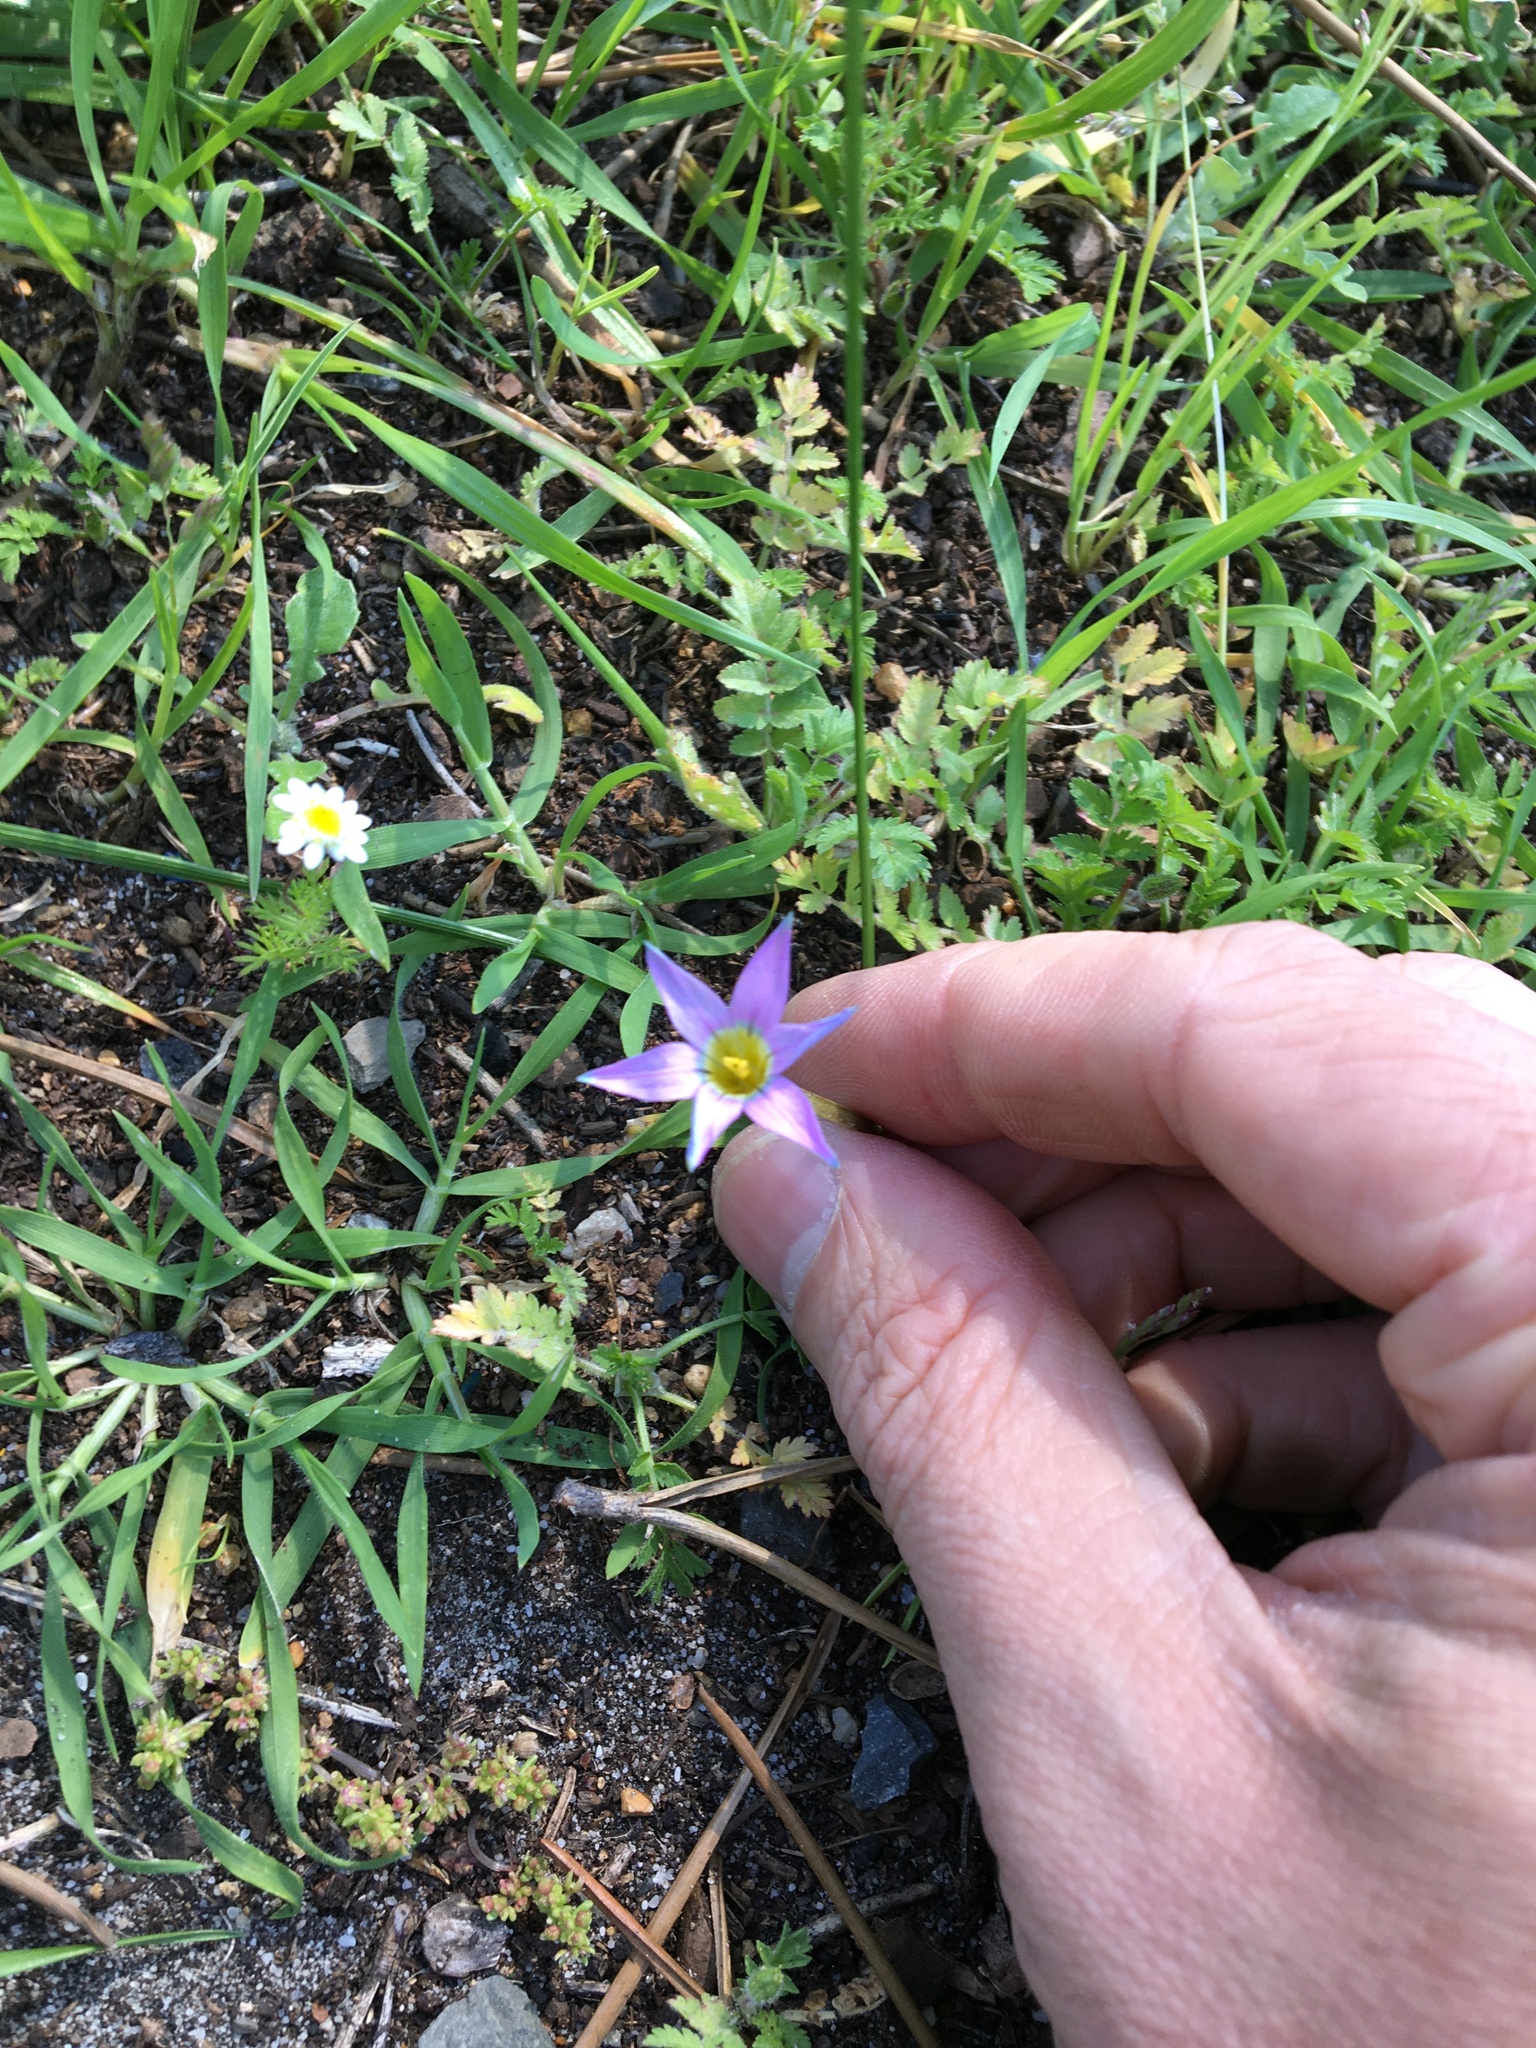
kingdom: Plantae
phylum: Tracheophyta
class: Liliopsida
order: Asparagales
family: Iridaceae
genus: Romulea
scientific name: Romulea rosea
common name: Oniongrass
